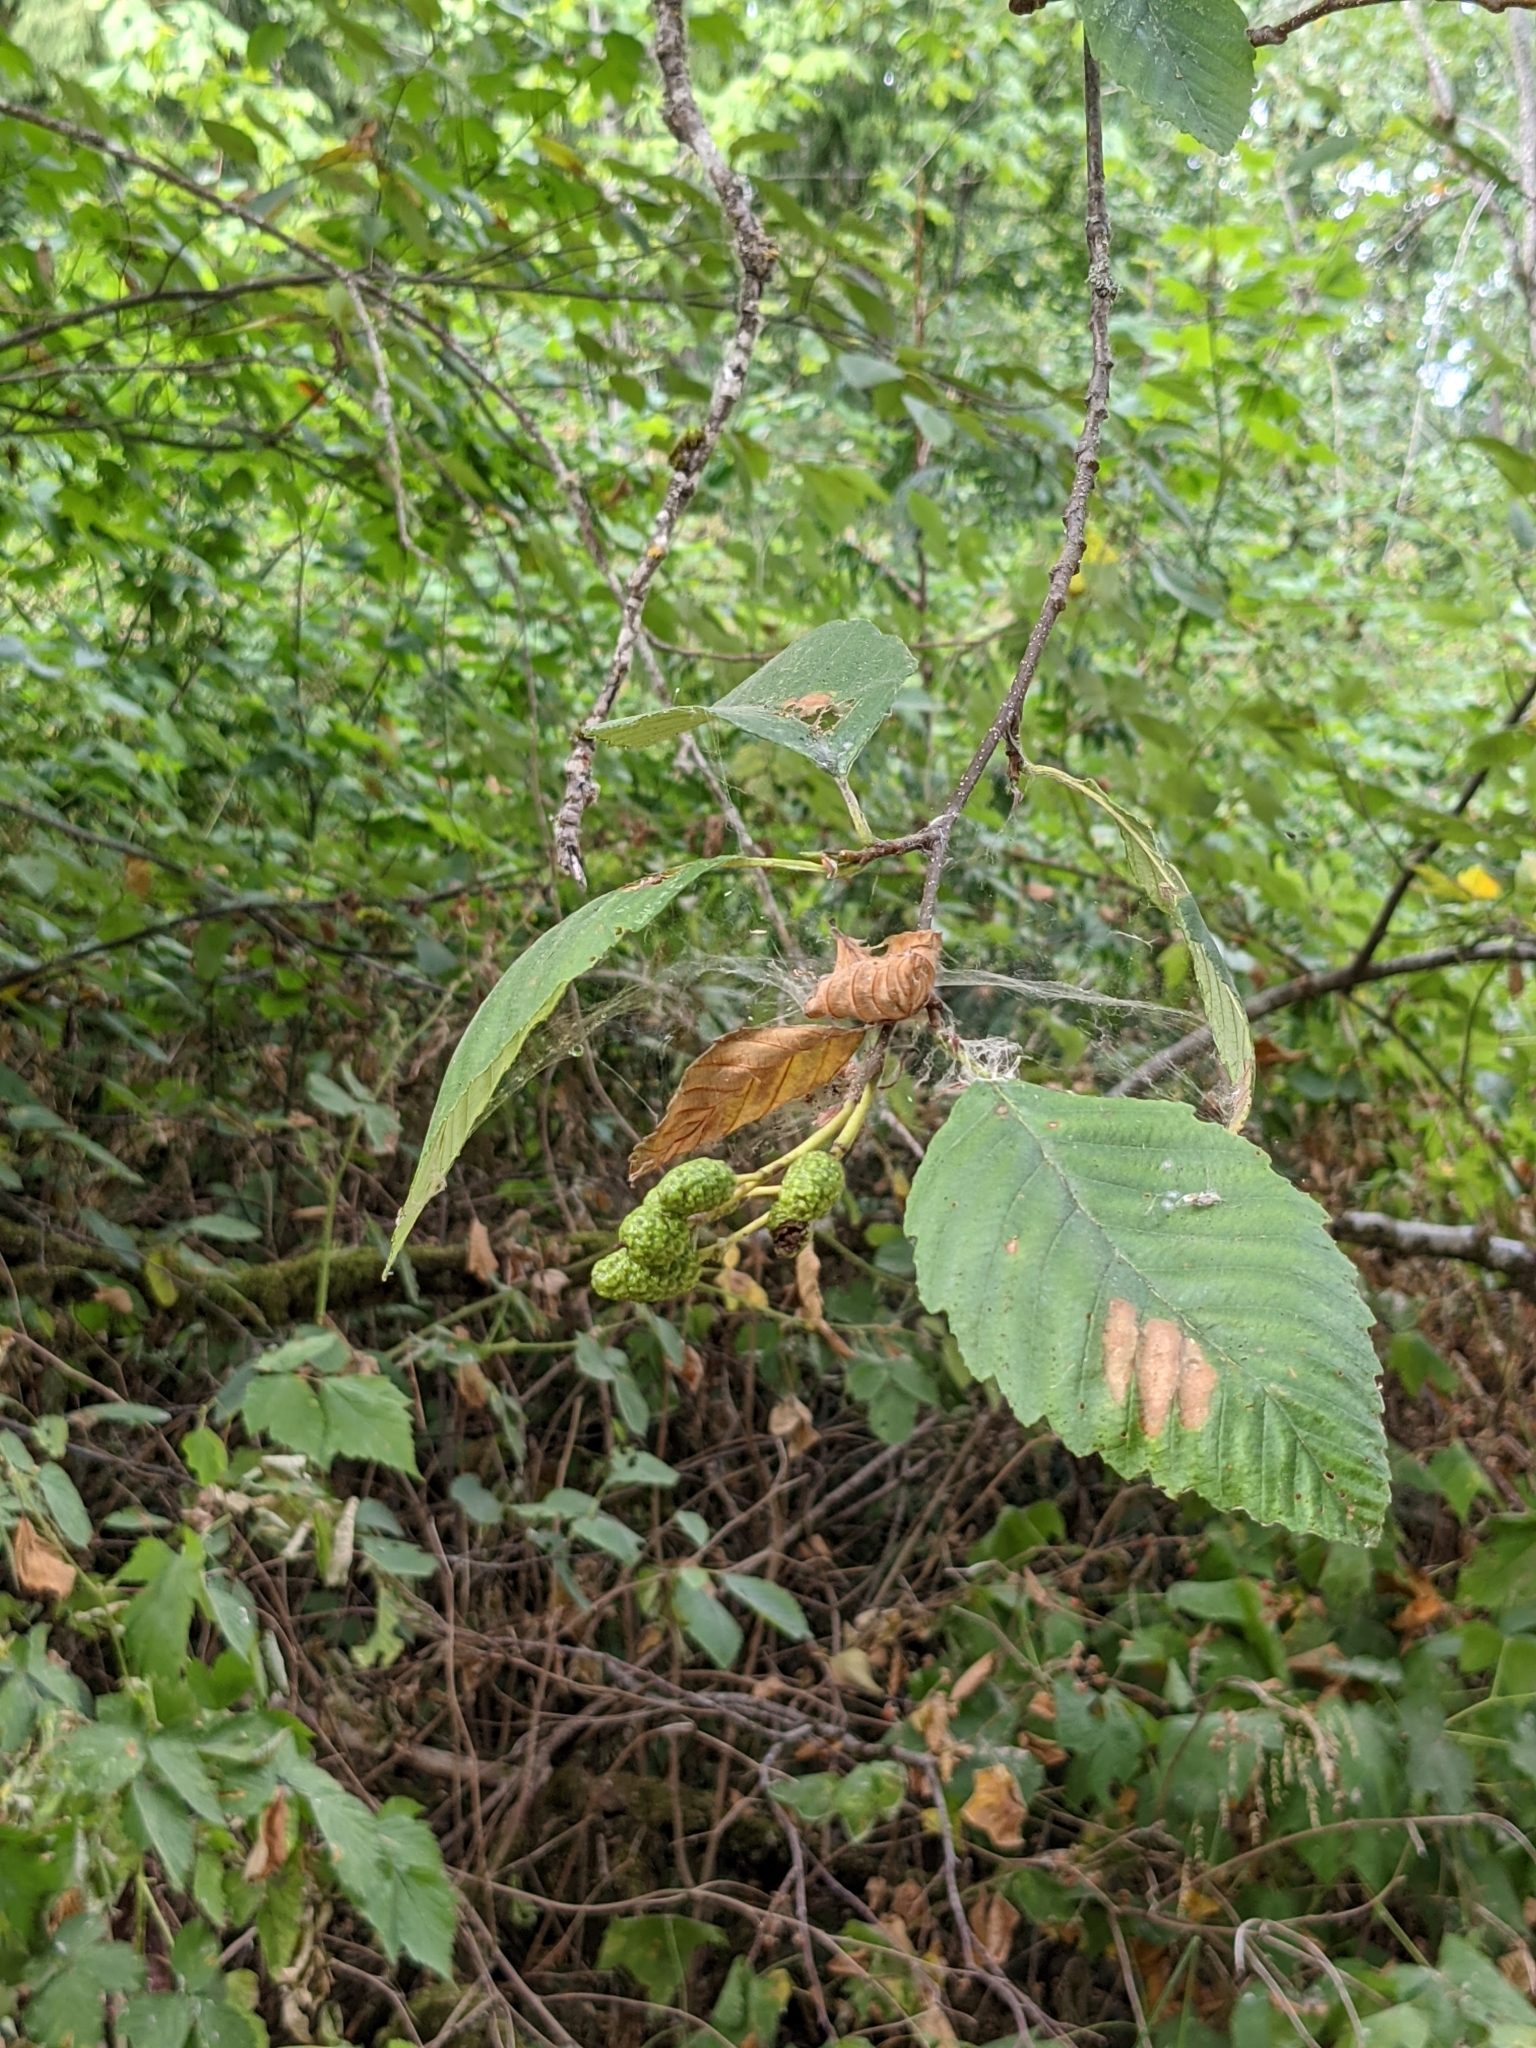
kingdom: Plantae
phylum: Tracheophyta
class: Magnoliopsida
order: Fagales
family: Betulaceae
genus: Alnus
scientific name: Alnus rubra
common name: Red alder
